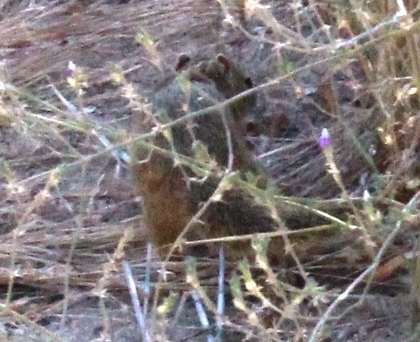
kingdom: Animalia
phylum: Chordata
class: Mammalia
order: Rodentia
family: Sciuridae
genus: Paraxerus
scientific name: Paraxerus cepapi
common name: Smith's bush squirrel
